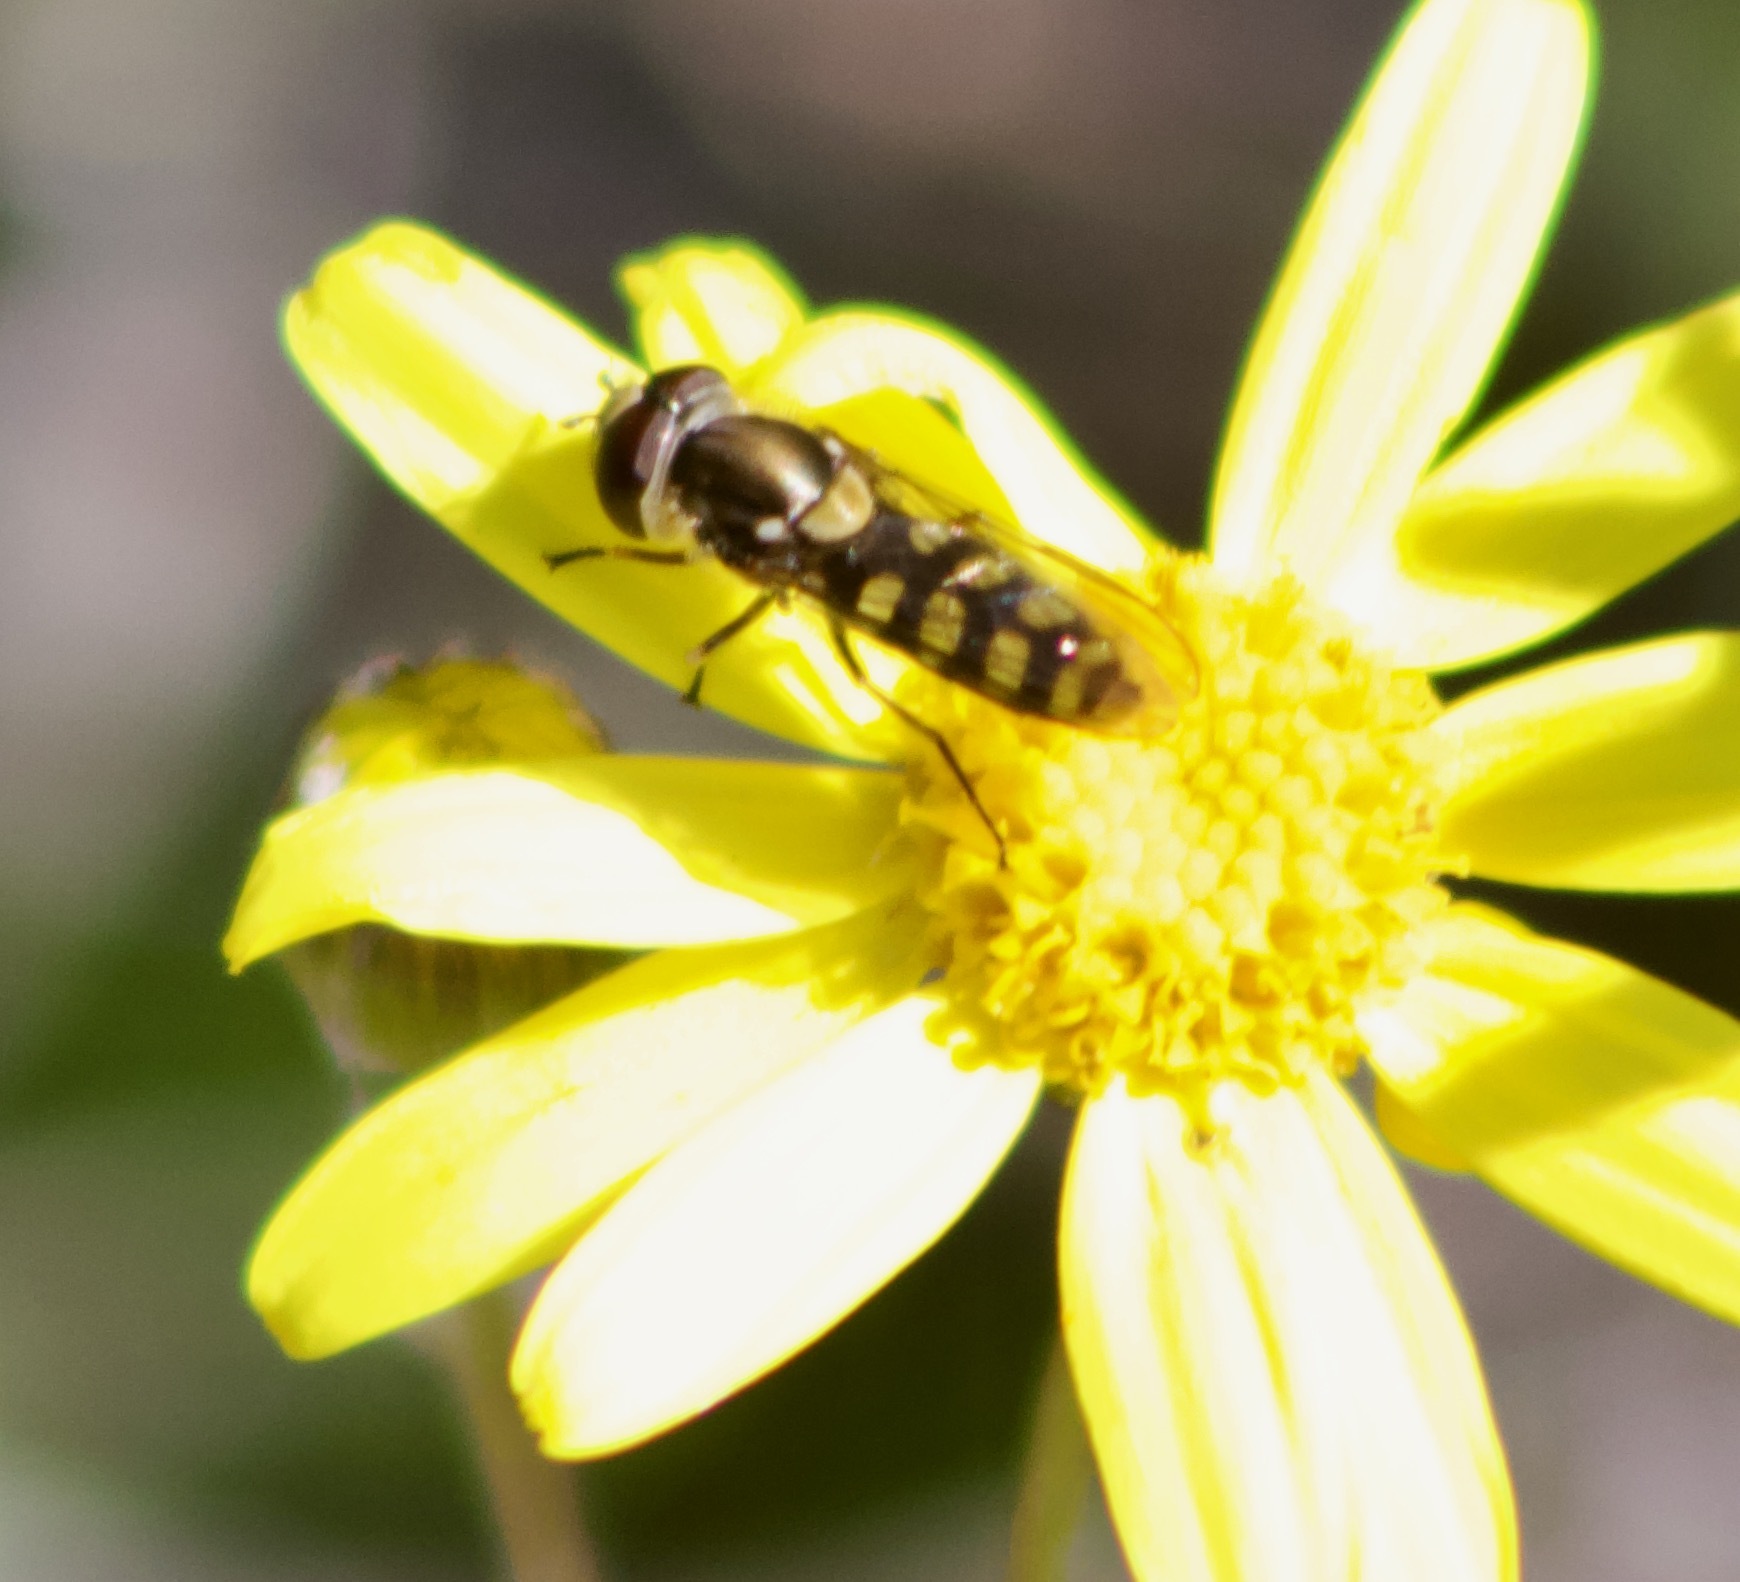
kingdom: Animalia
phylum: Arthropoda
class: Insecta
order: Diptera
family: Syrphidae
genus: Fazia
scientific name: Fazia decemmaculata
